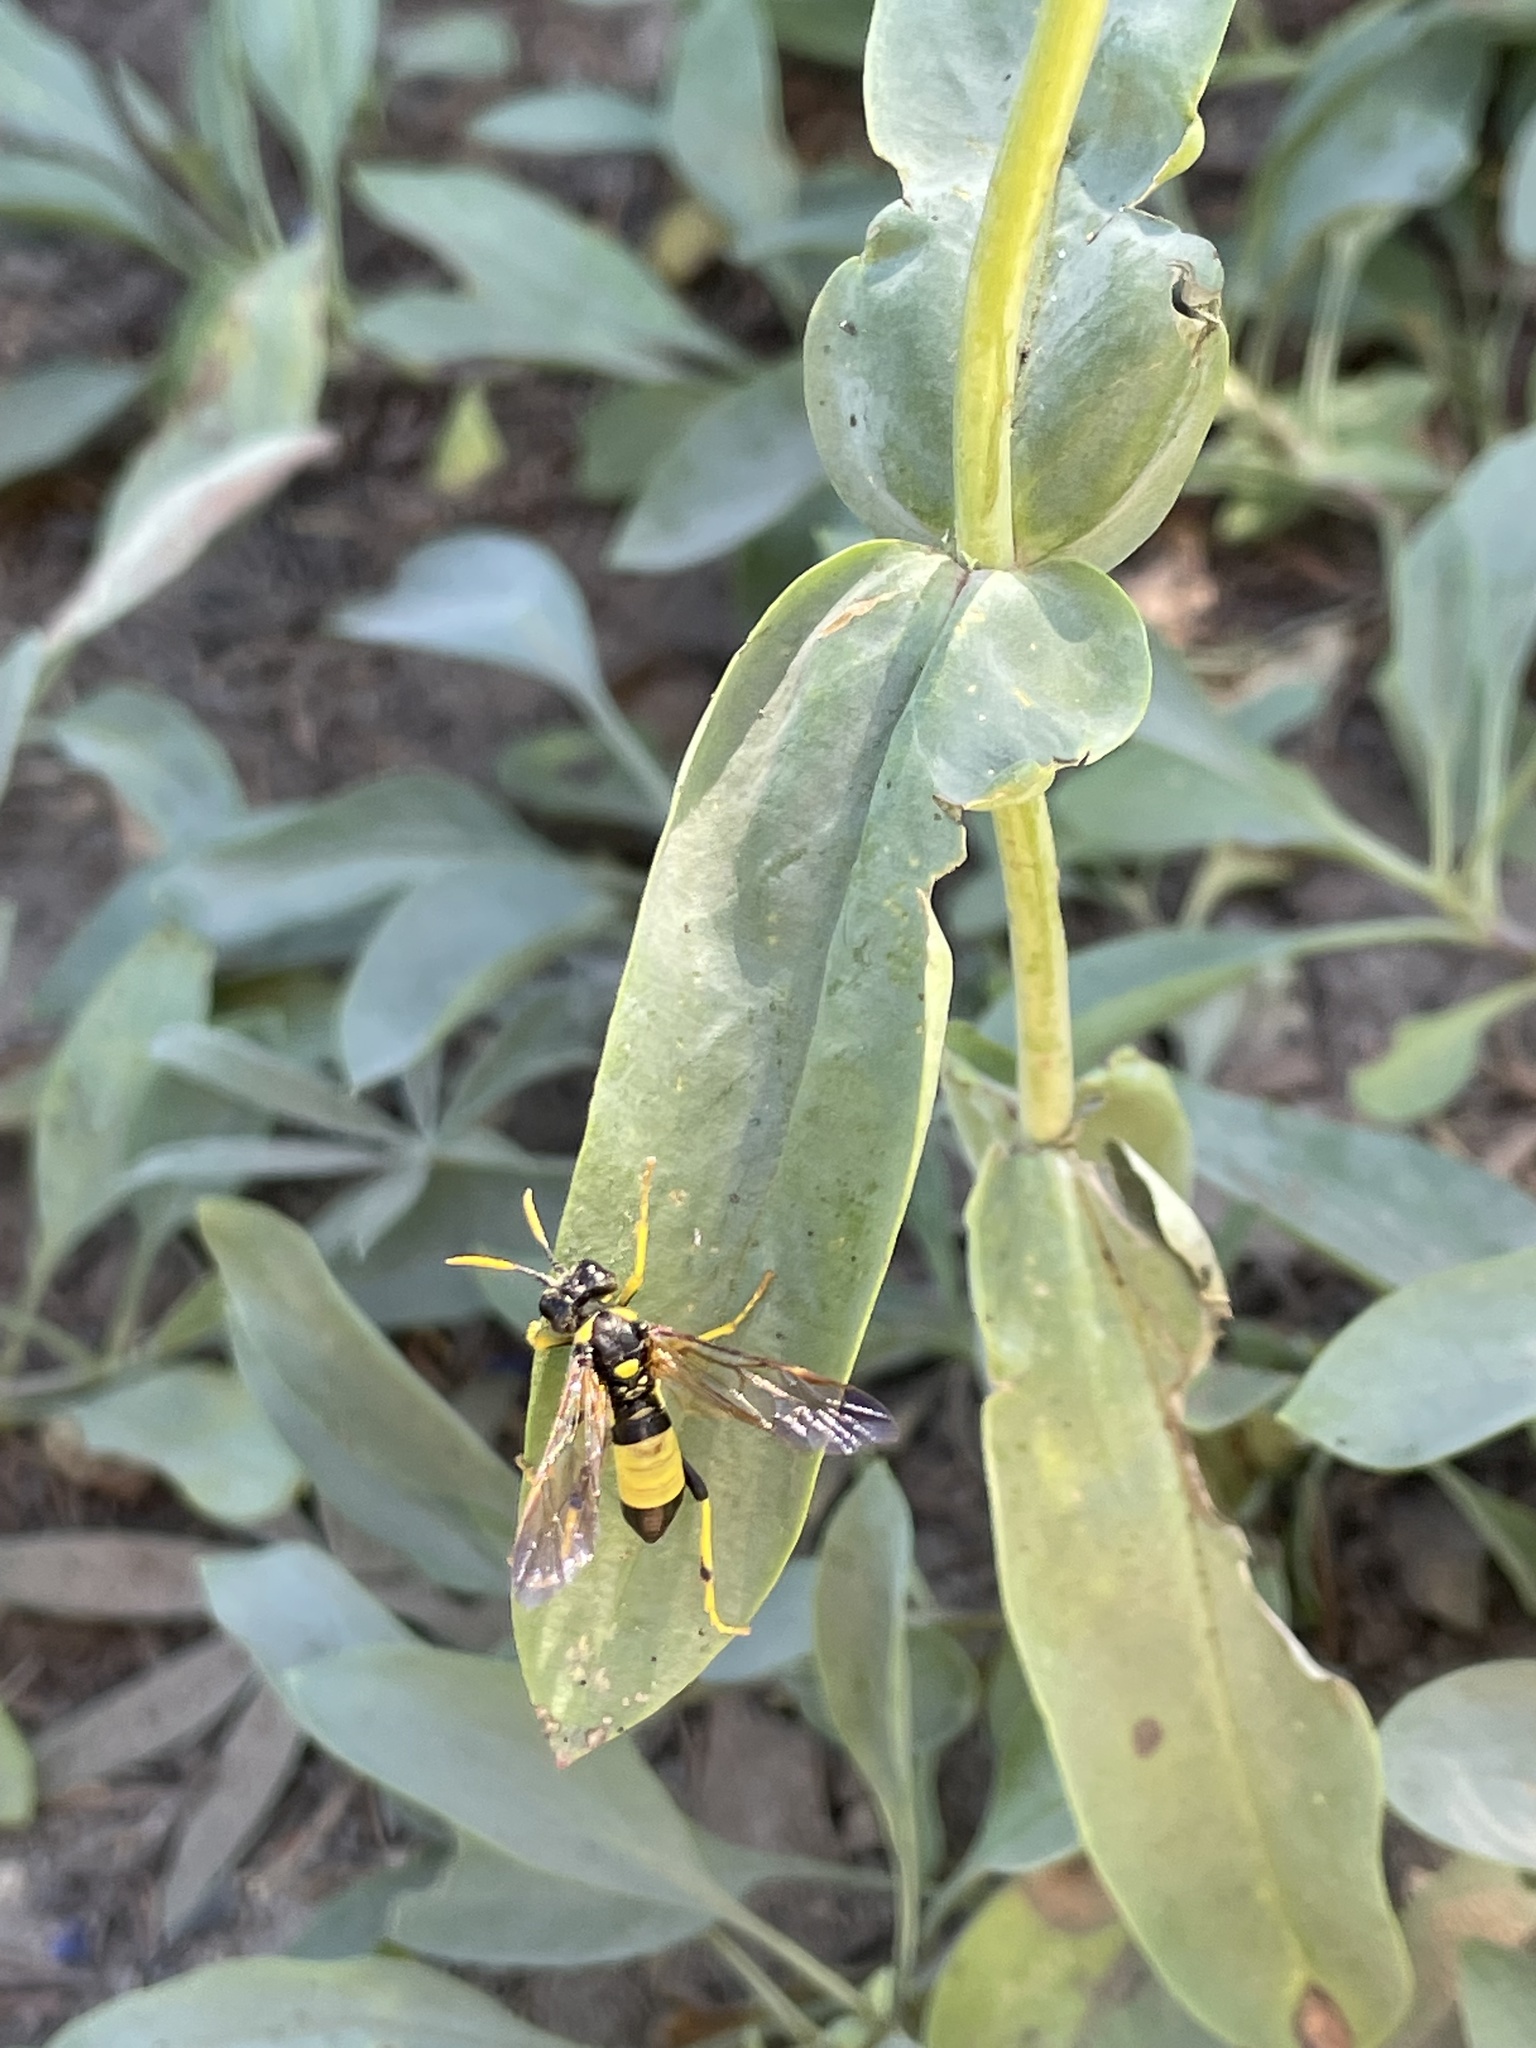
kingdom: Animalia
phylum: Arthropoda
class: Insecta
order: Hymenoptera
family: Tenthredinidae
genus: Tenthredo
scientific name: Tenthredo maxima
